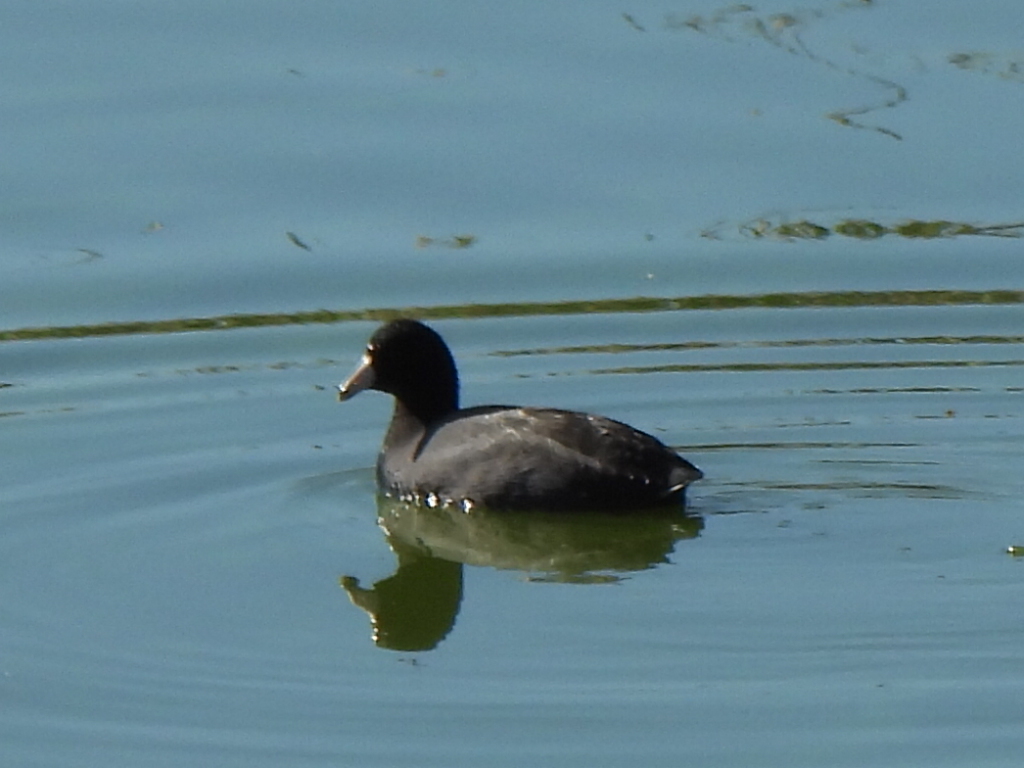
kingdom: Animalia
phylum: Chordata
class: Aves
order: Gruiformes
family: Rallidae
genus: Fulica
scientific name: Fulica americana
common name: American coot
